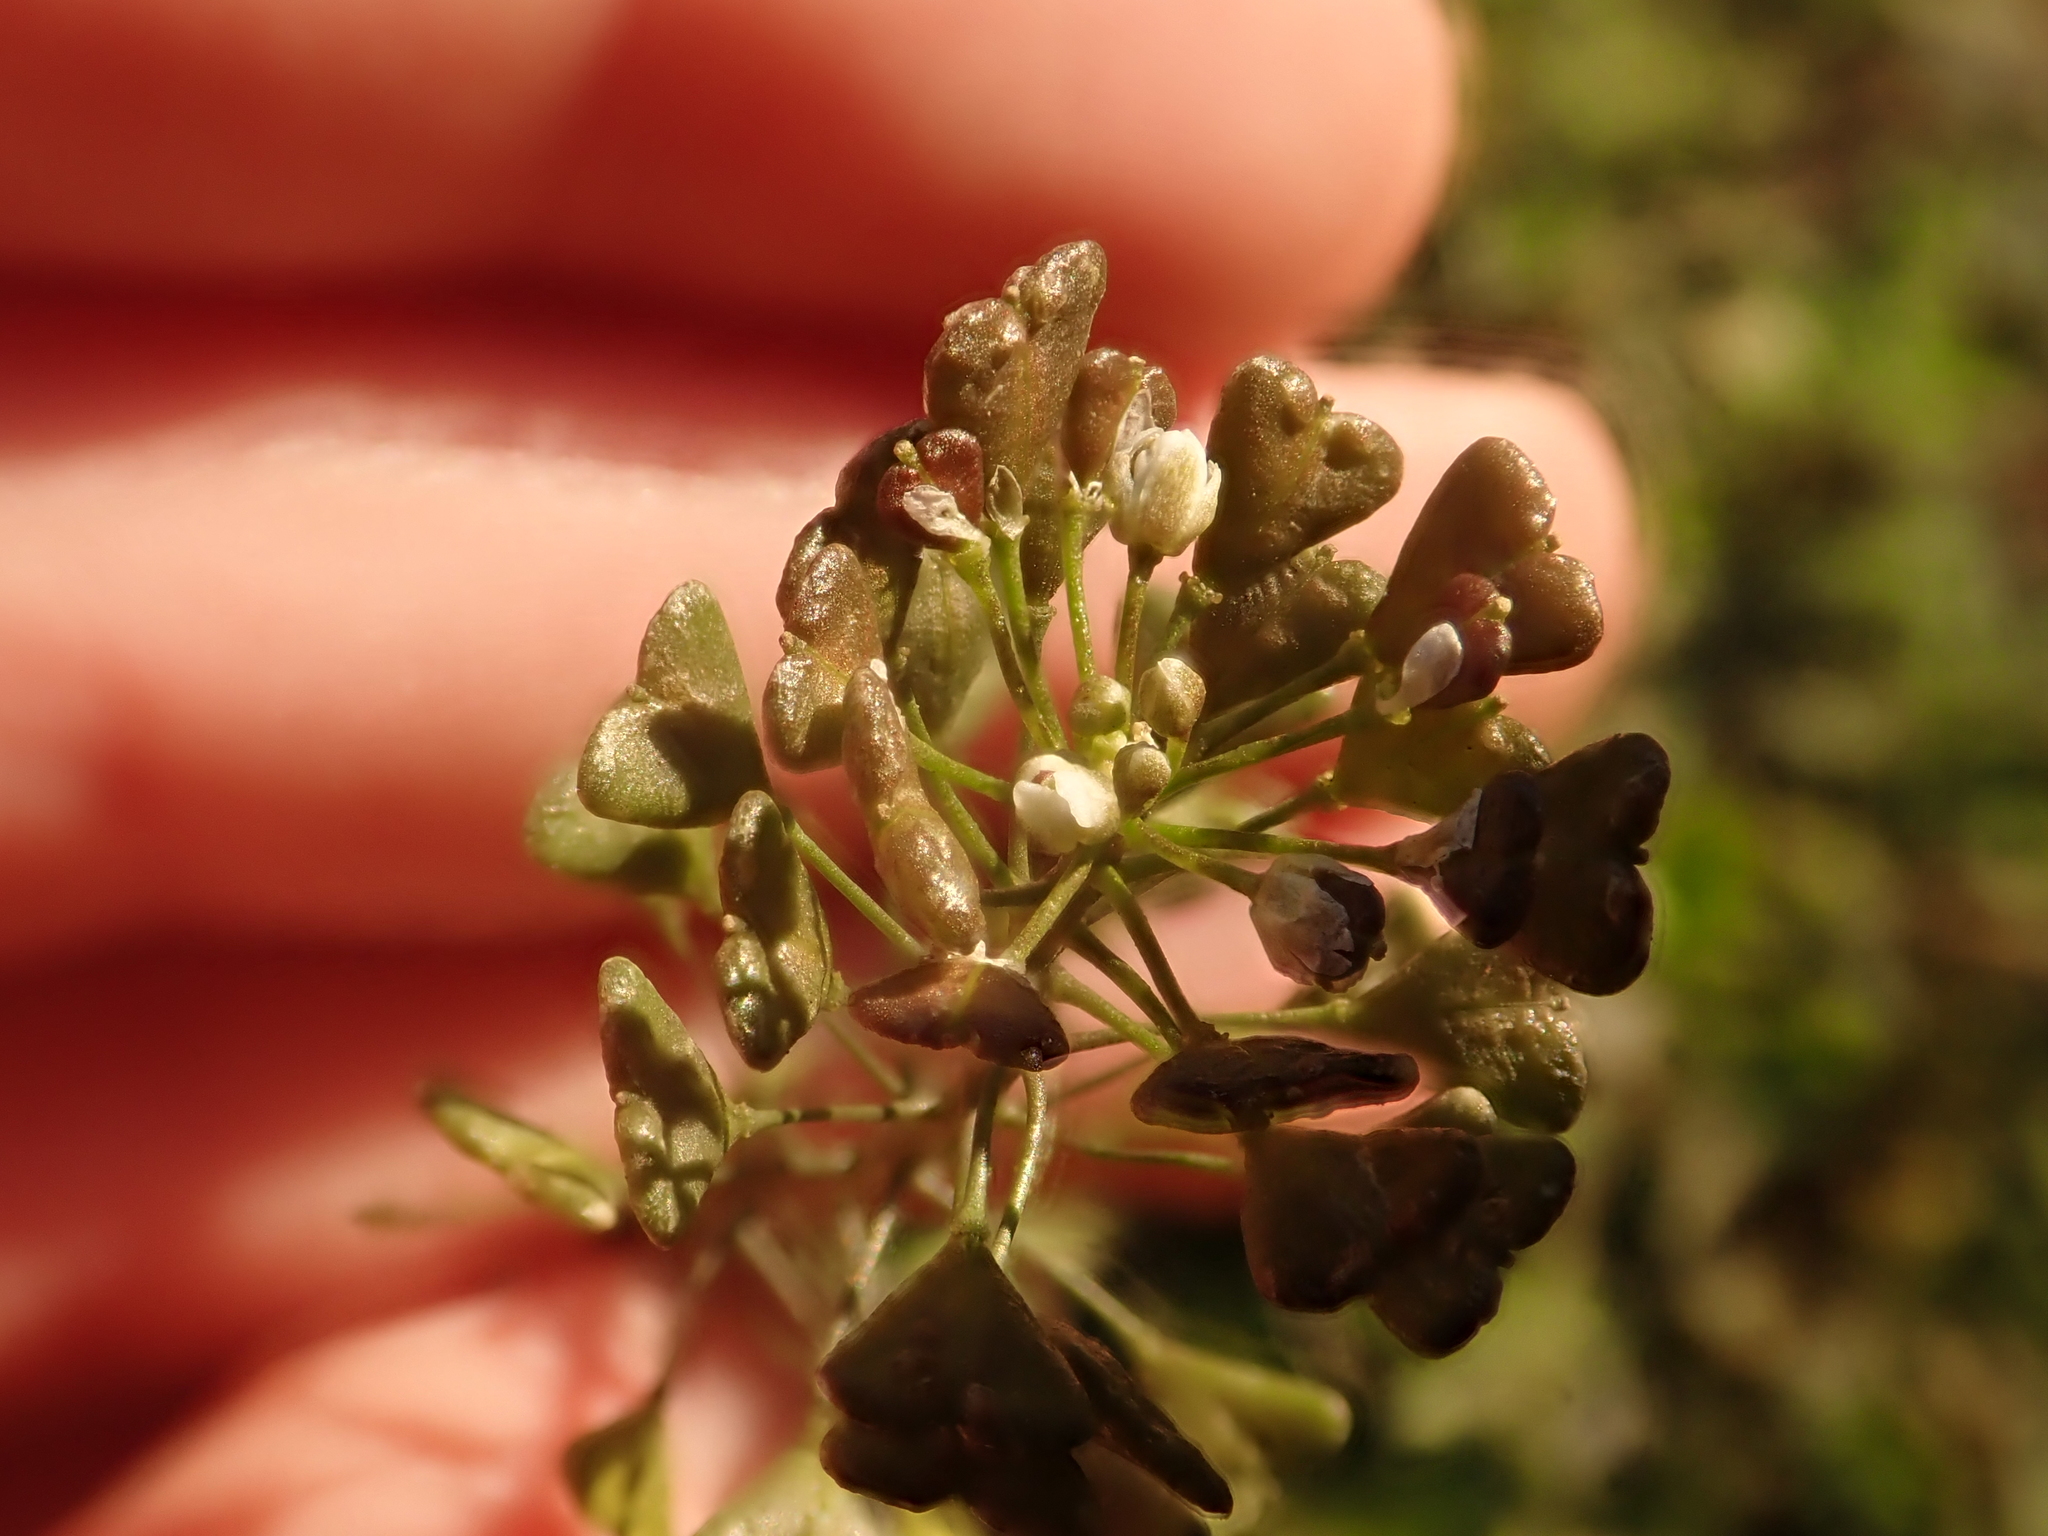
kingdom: Plantae
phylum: Tracheophyta
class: Magnoliopsida
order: Brassicales
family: Brassicaceae
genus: Capsella
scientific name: Capsella bursa-pastoris
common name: Shepherd's purse
